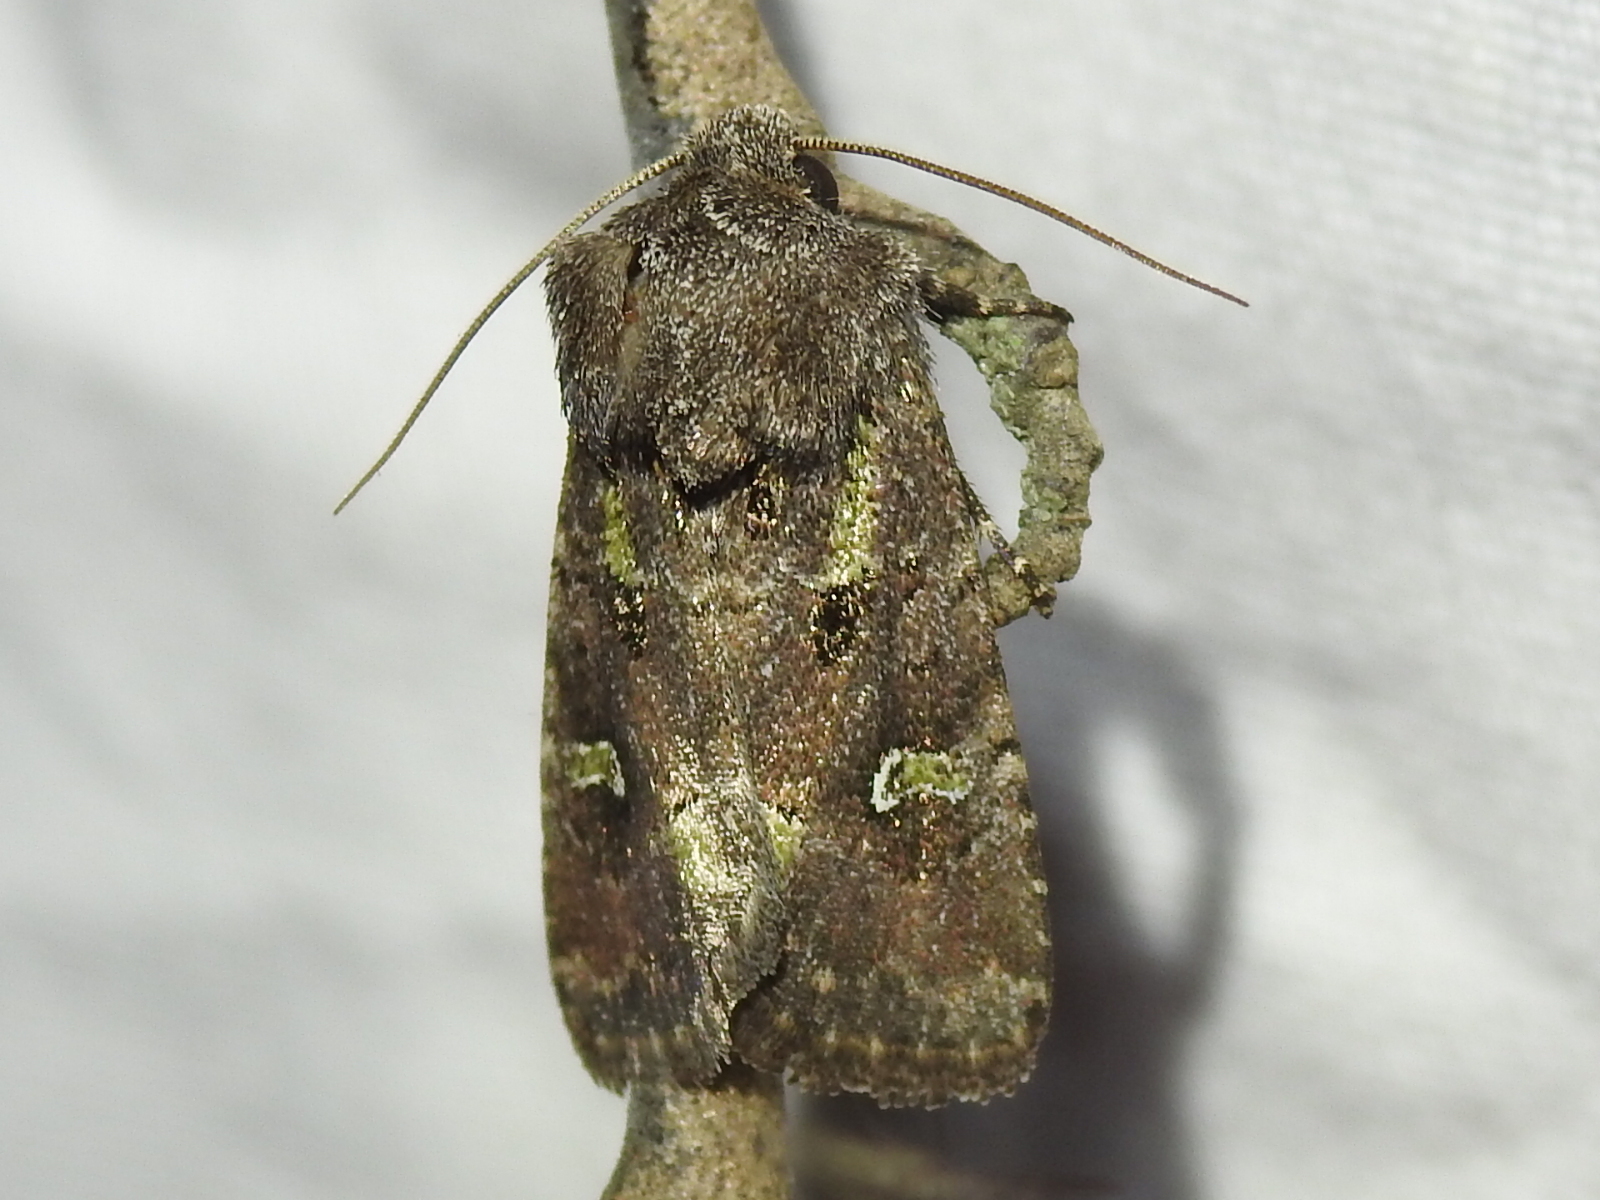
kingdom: Animalia
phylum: Arthropoda
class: Insecta
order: Lepidoptera
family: Noctuidae
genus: Lacinipolia
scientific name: Lacinipolia renigera
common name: Kidney-spotted minor
